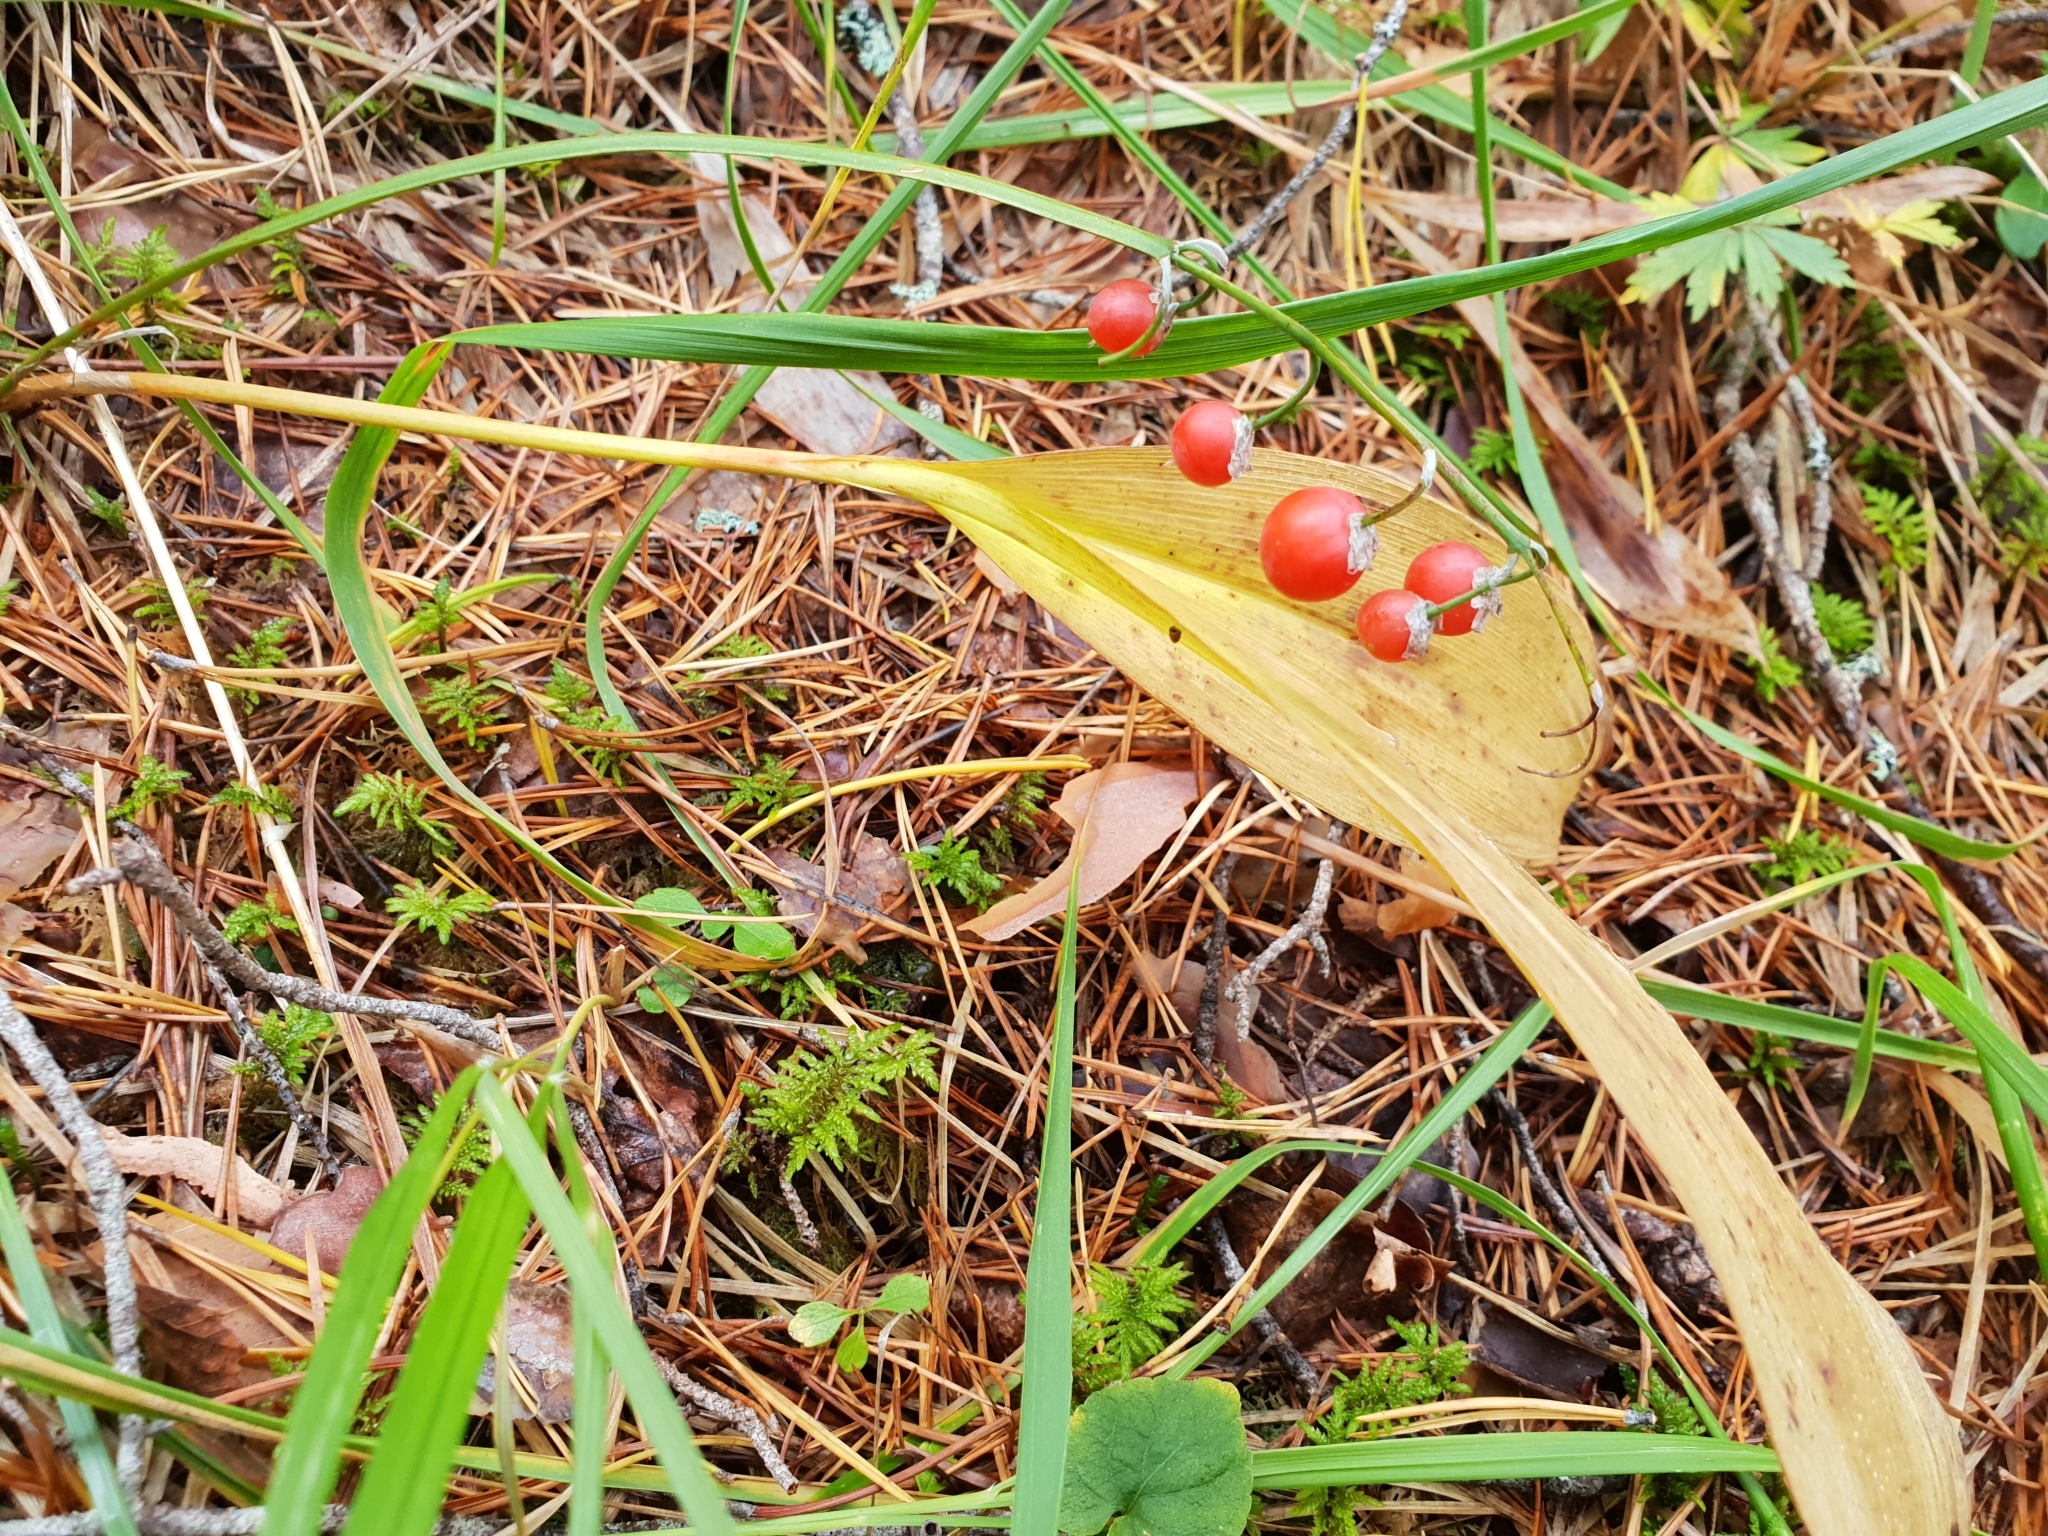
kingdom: Plantae
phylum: Tracheophyta
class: Liliopsida
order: Asparagales
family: Asparagaceae
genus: Convallaria
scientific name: Convallaria majalis
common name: Lily-of-the-valley
